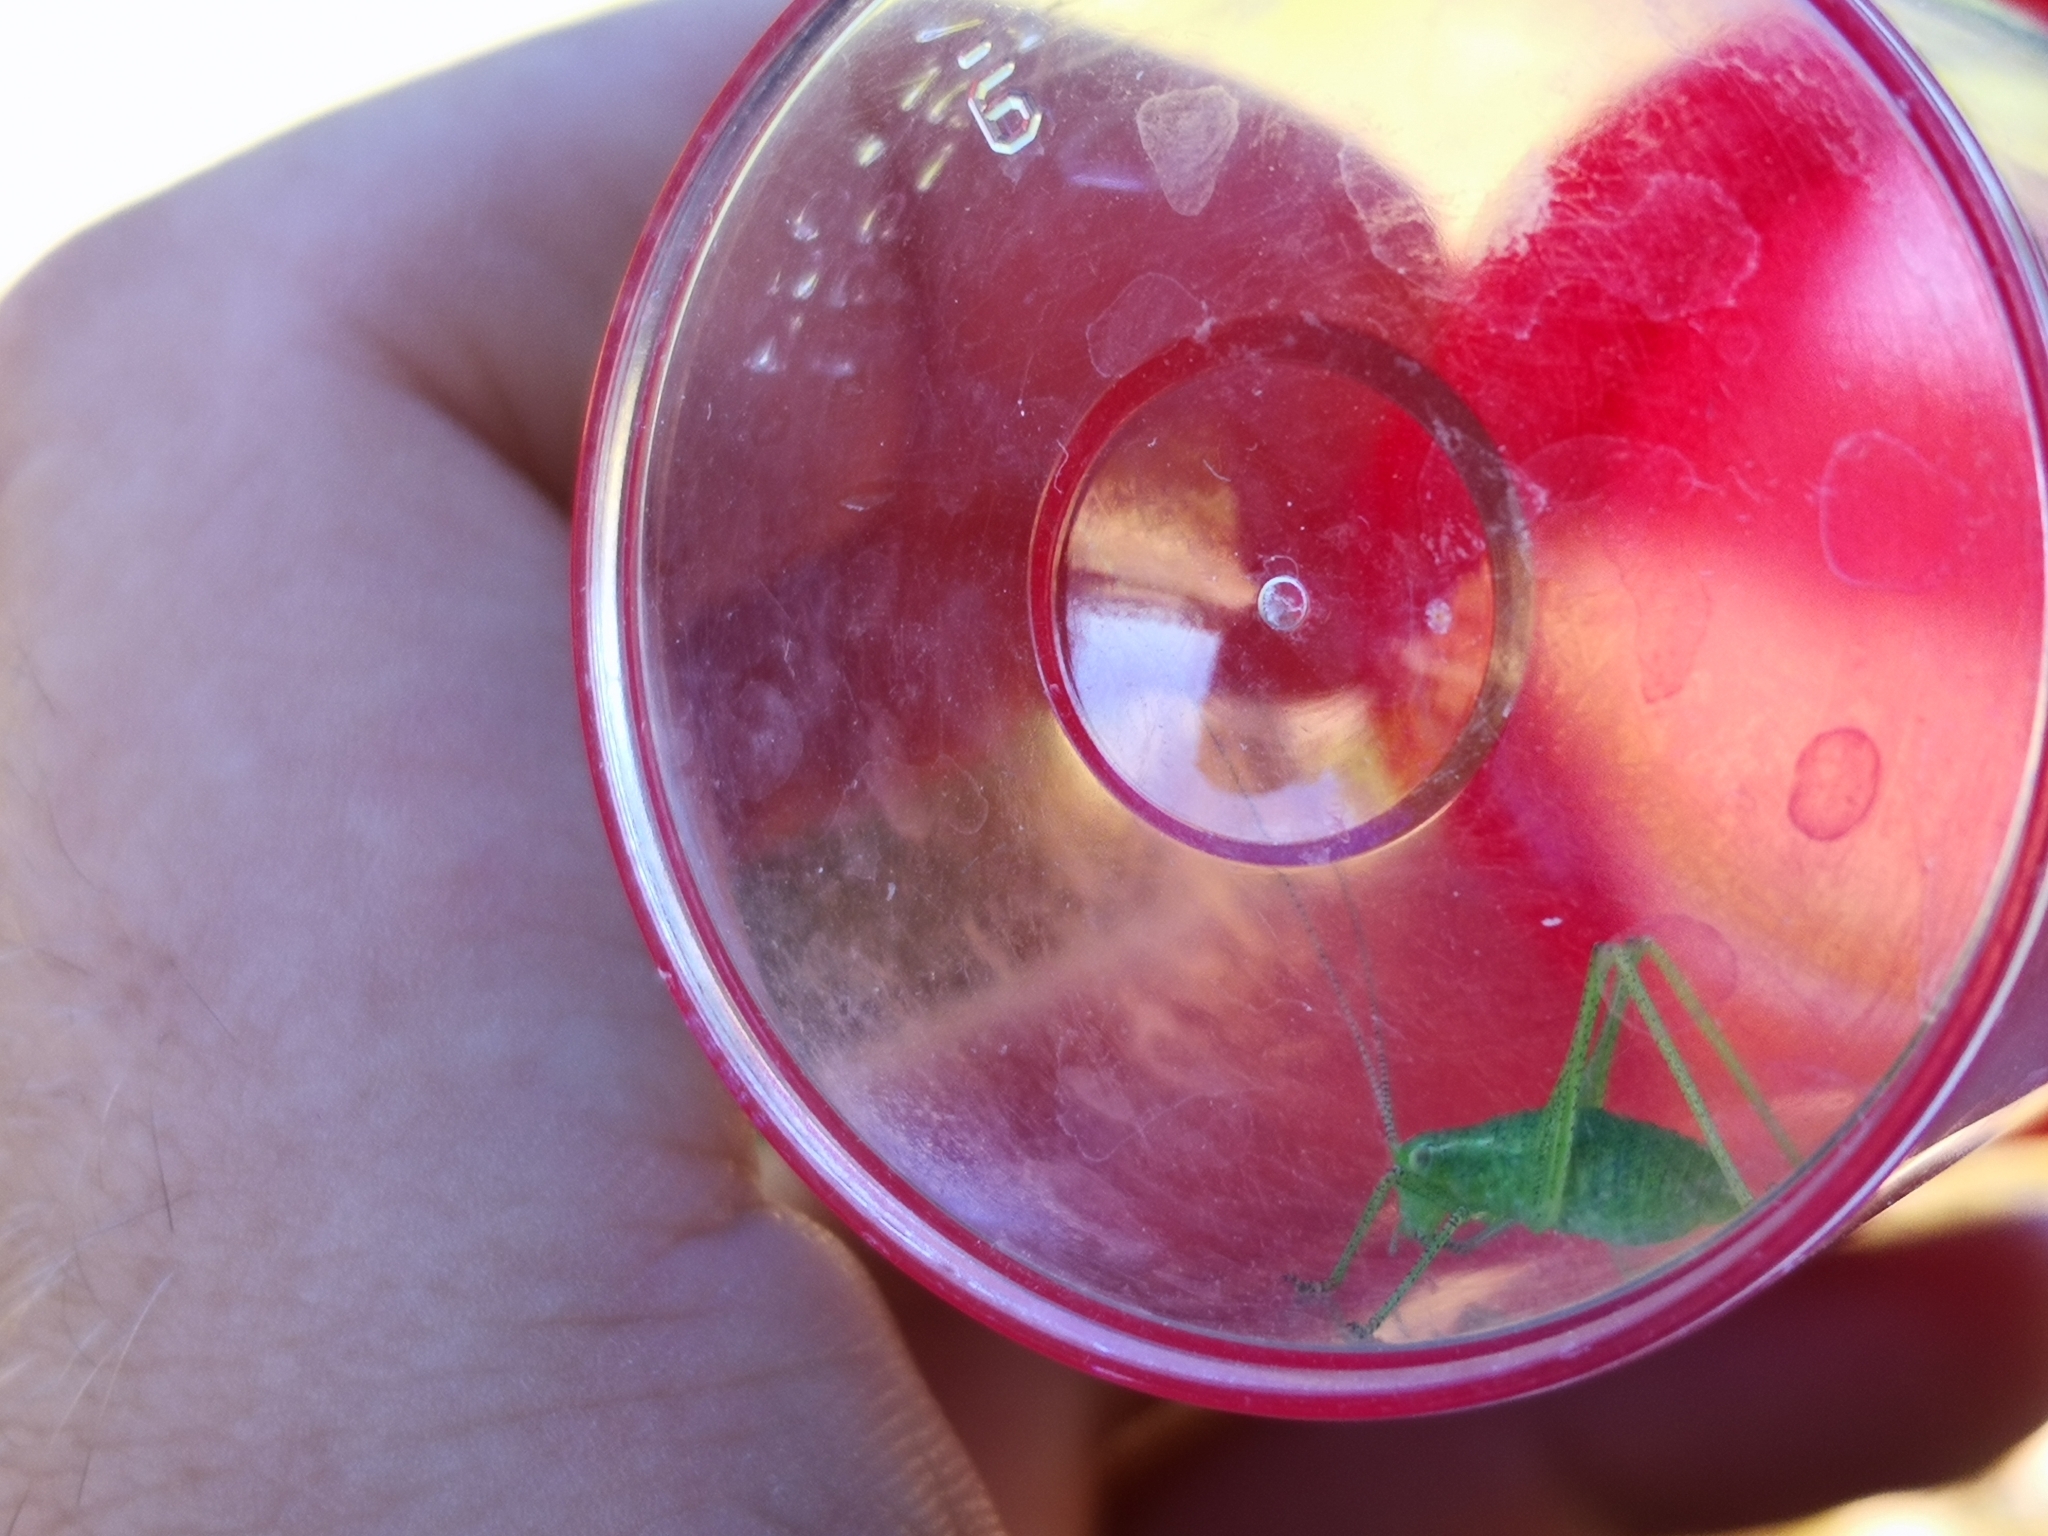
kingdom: Animalia
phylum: Arthropoda
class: Insecta
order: Orthoptera
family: Tettigoniidae
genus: Leptophyes
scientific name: Leptophyes punctatissima
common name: Speckled bush-cricket
